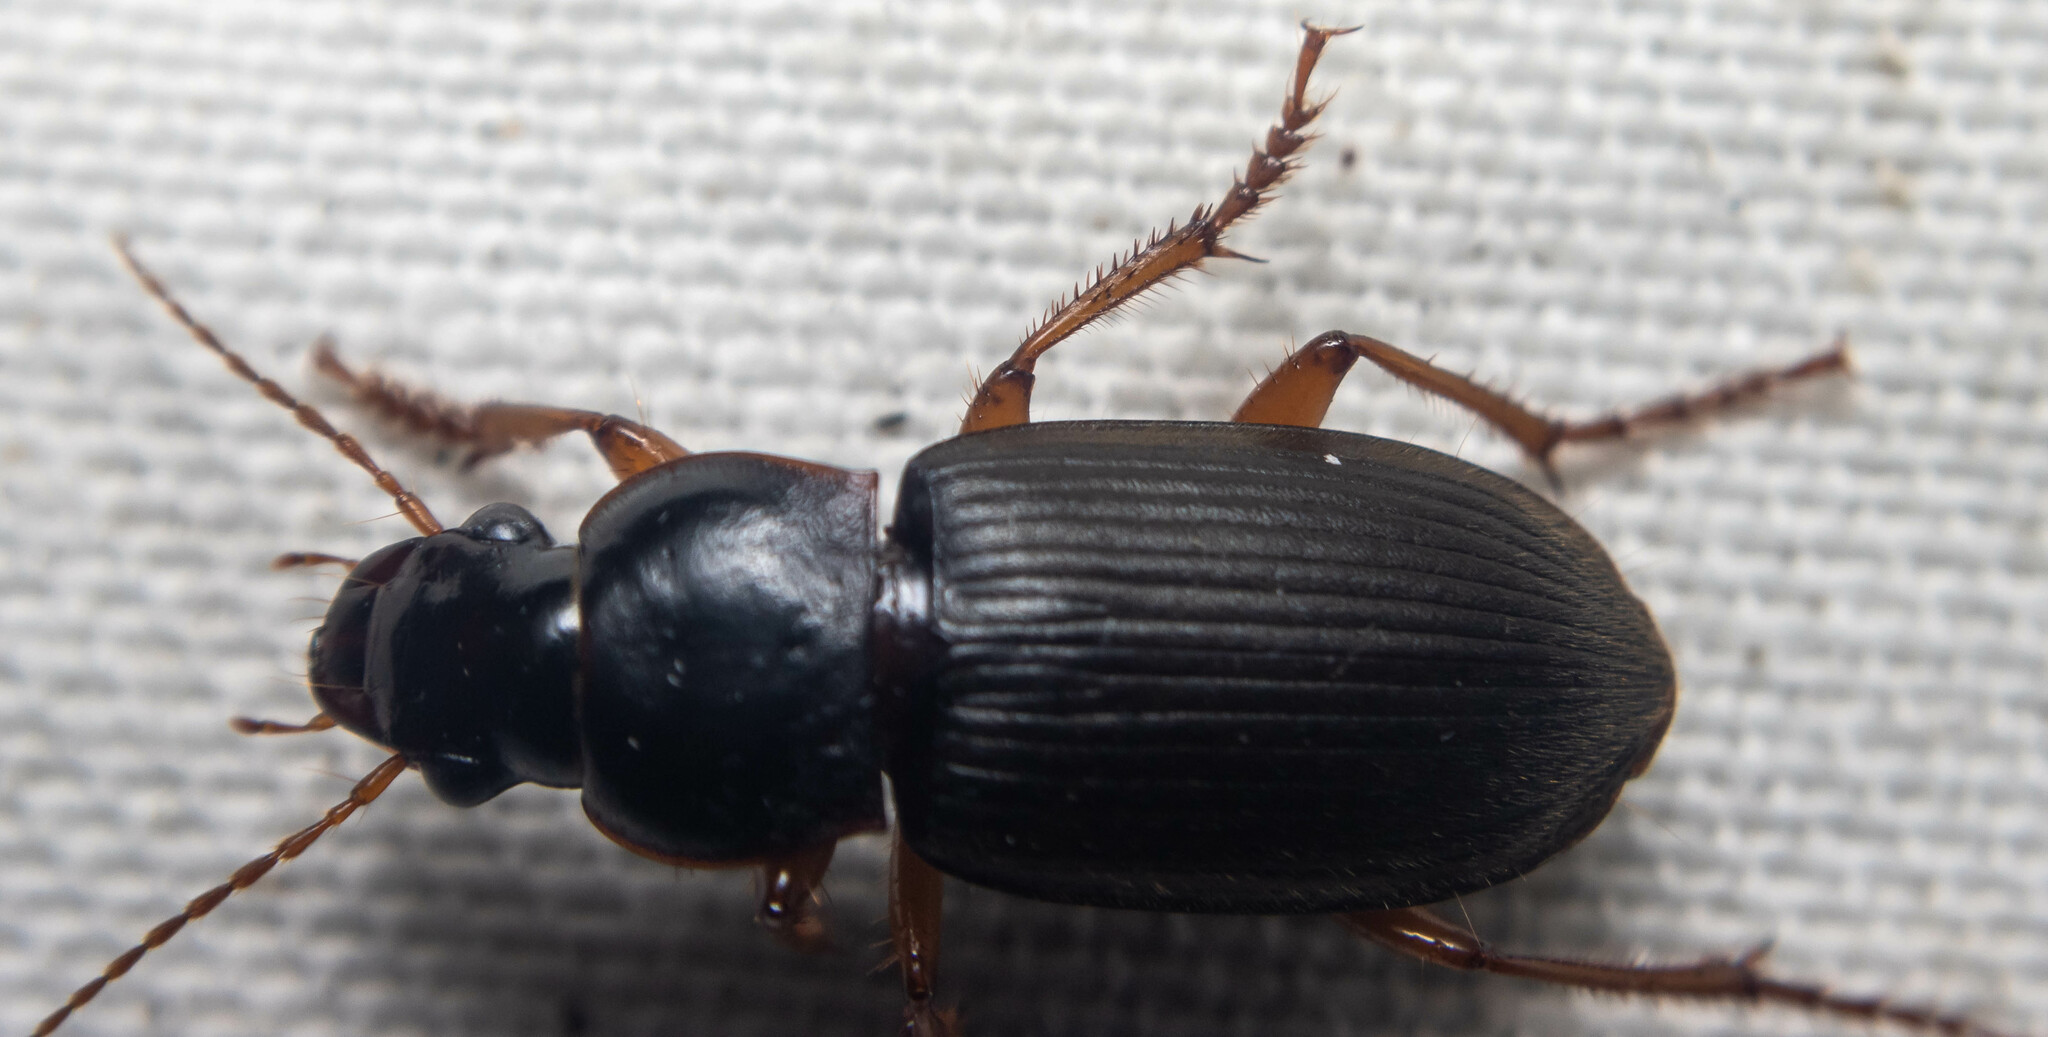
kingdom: Animalia
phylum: Arthropoda
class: Insecta
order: Coleoptera
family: Carabidae
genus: Harpalus
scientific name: Harpalus rufipes
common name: Strawberry harp ground beetle
